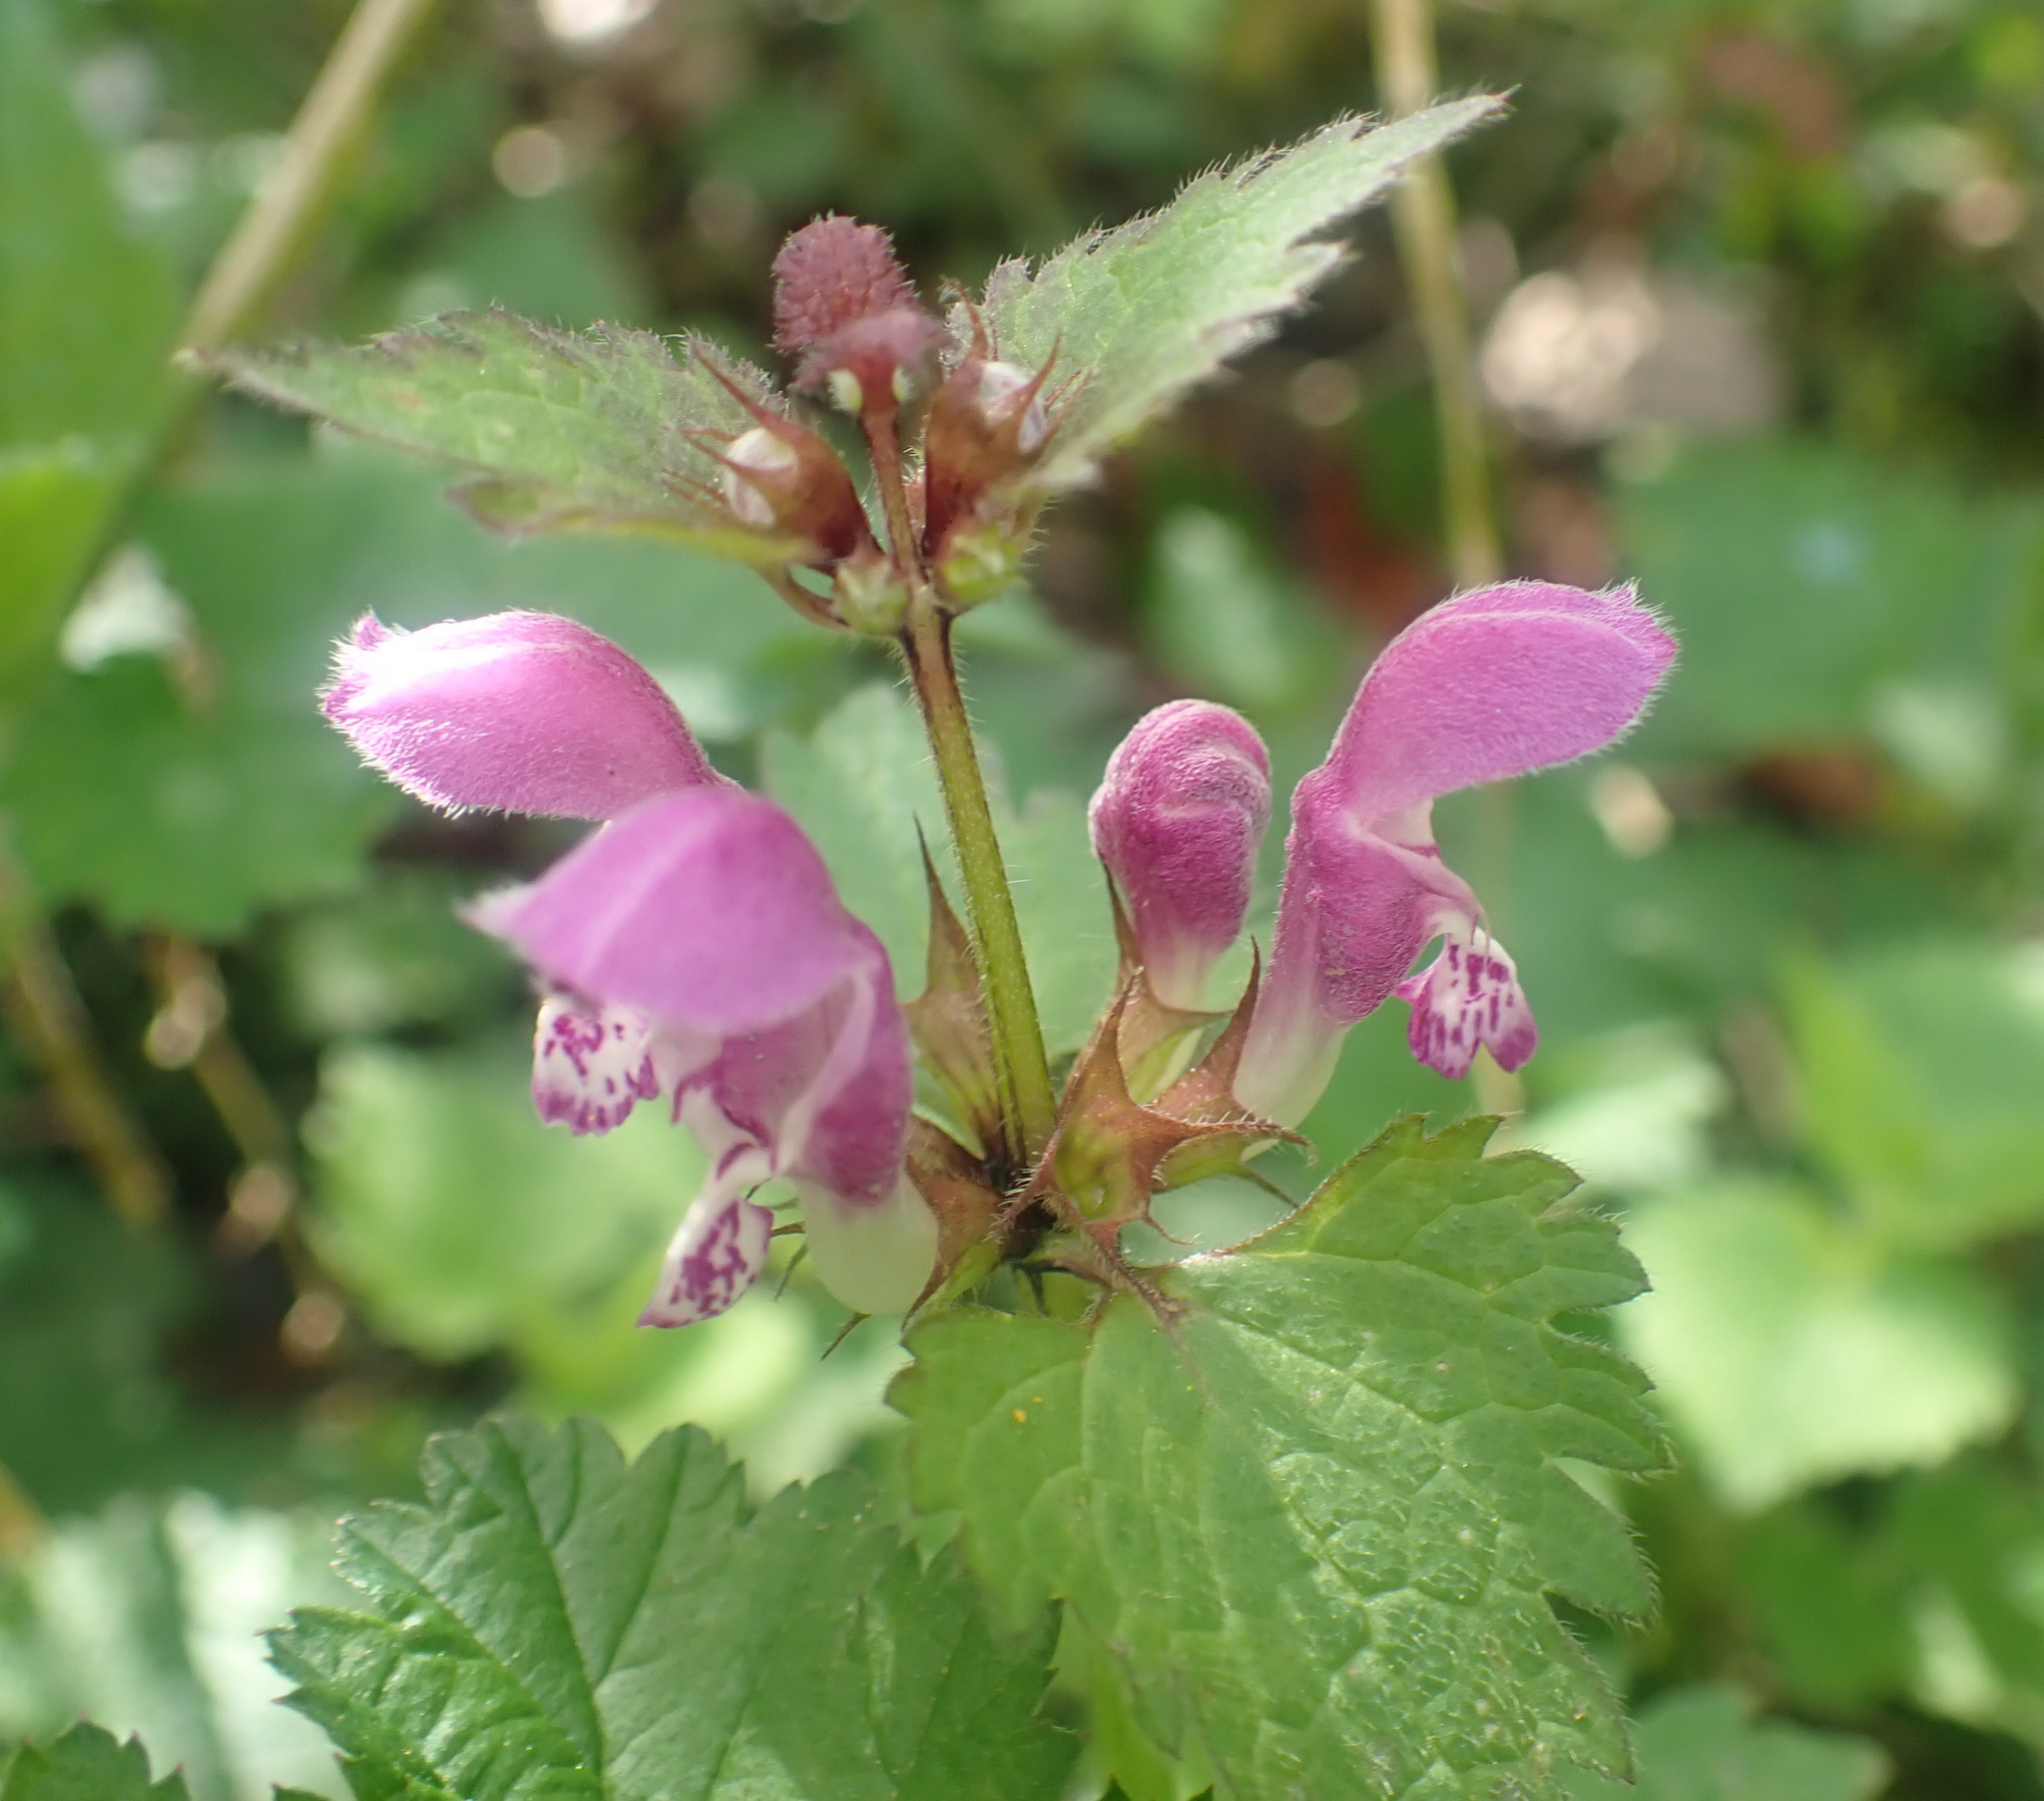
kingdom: Plantae
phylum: Tracheophyta
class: Magnoliopsida
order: Lamiales
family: Lamiaceae
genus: Lamium
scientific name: Lamium maculatum
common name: Spotted dead-nettle
